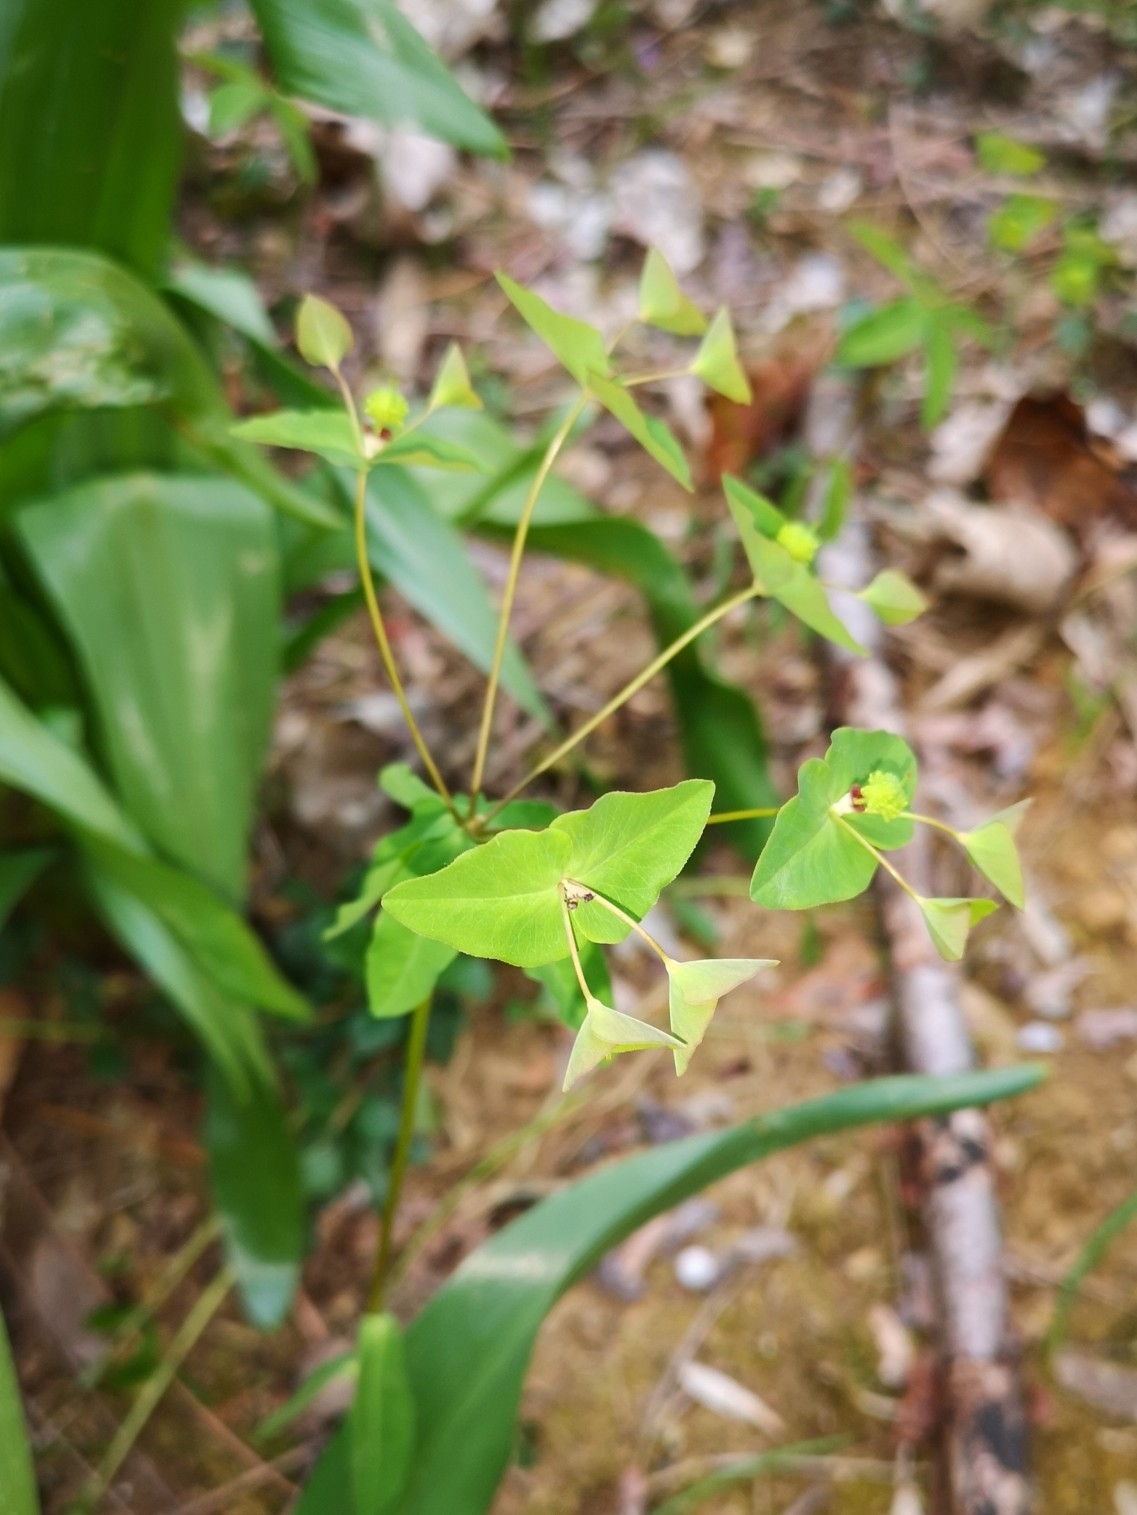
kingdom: Plantae
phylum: Tracheophyta
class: Magnoliopsida
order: Malpighiales
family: Euphorbiaceae
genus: Euphorbia
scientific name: Euphorbia dulcis
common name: Sweet spurge
